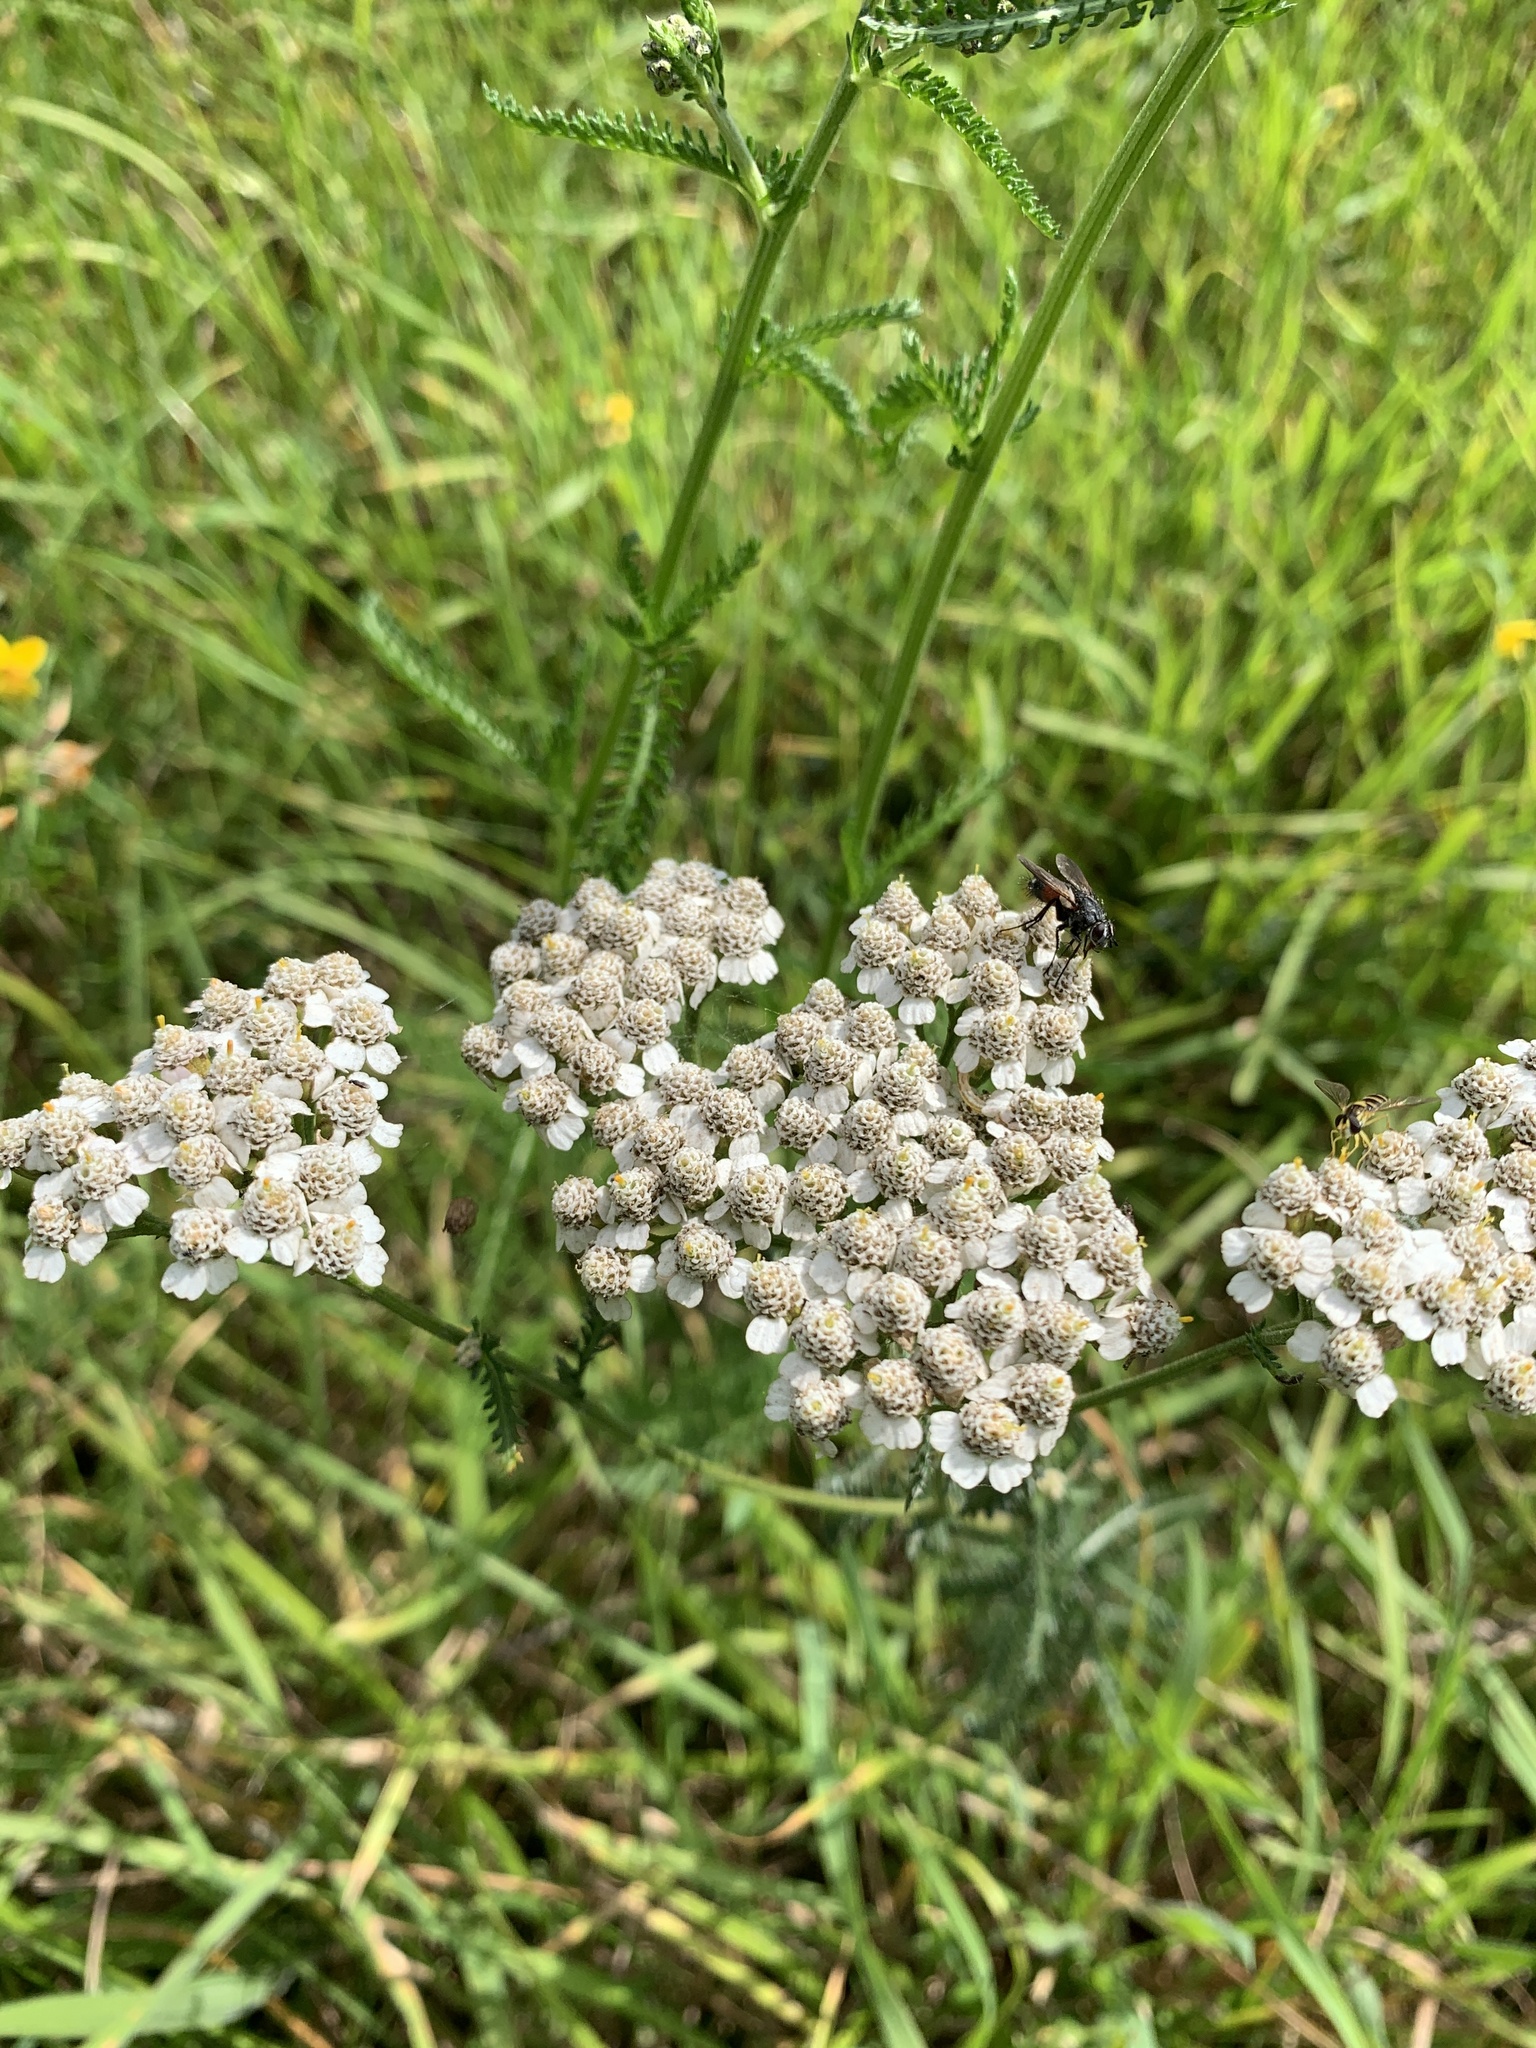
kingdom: Plantae
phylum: Tracheophyta
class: Magnoliopsida
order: Asterales
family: Asteraceae
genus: Achillea
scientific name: Achillea millefolium
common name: Yarrow
